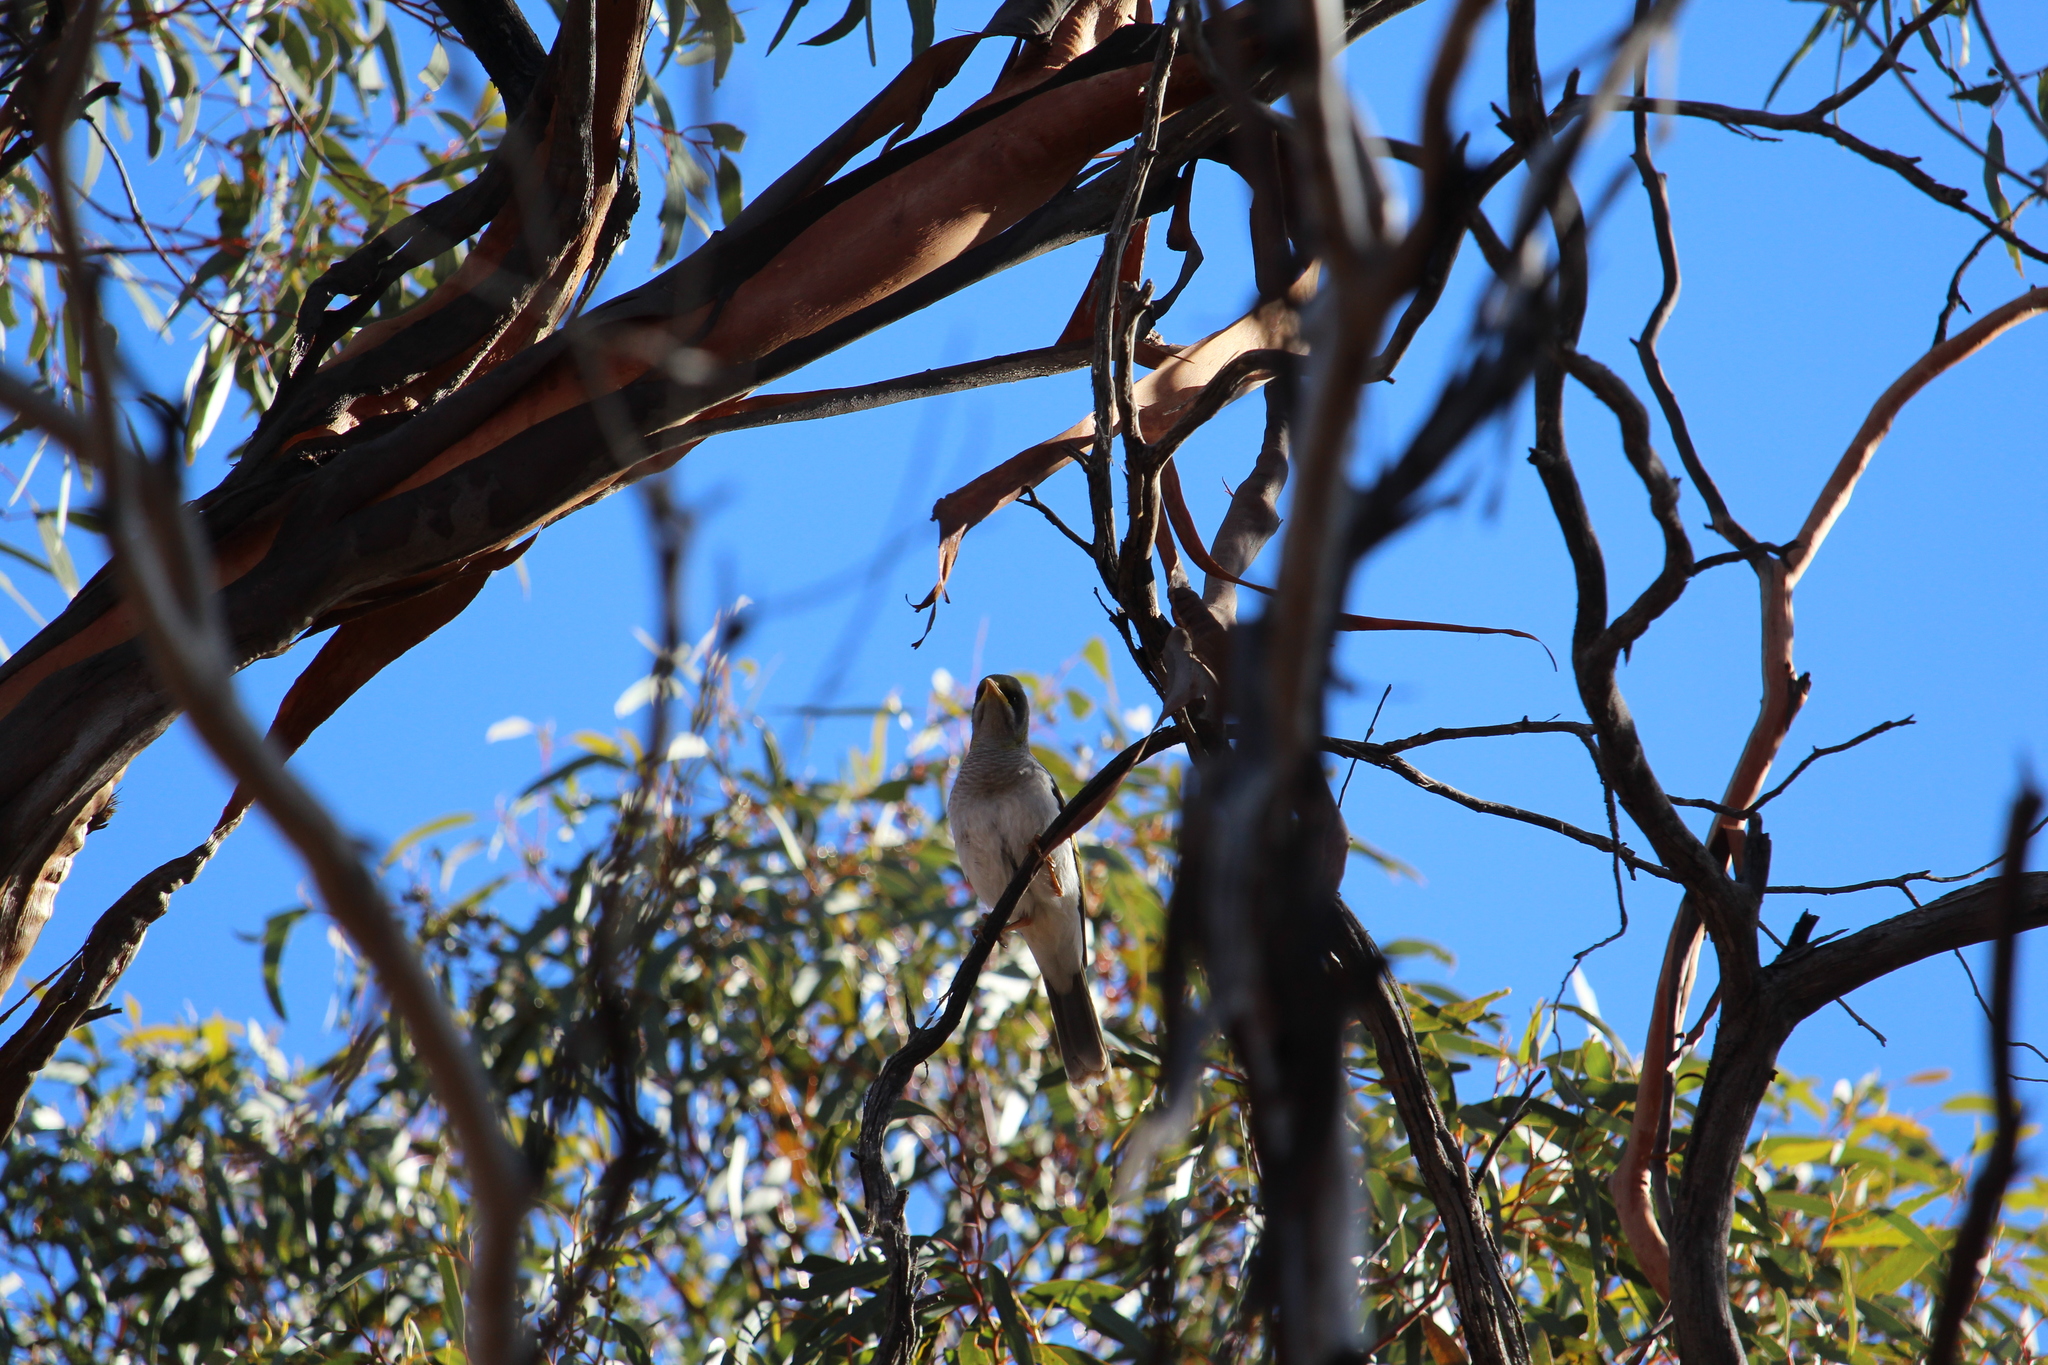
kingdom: Animalia
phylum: Chordata
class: Aves
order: Passeriformes
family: Meliphagidae
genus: Manorina
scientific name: Manorina flavigula
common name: Yellow-throated miner
